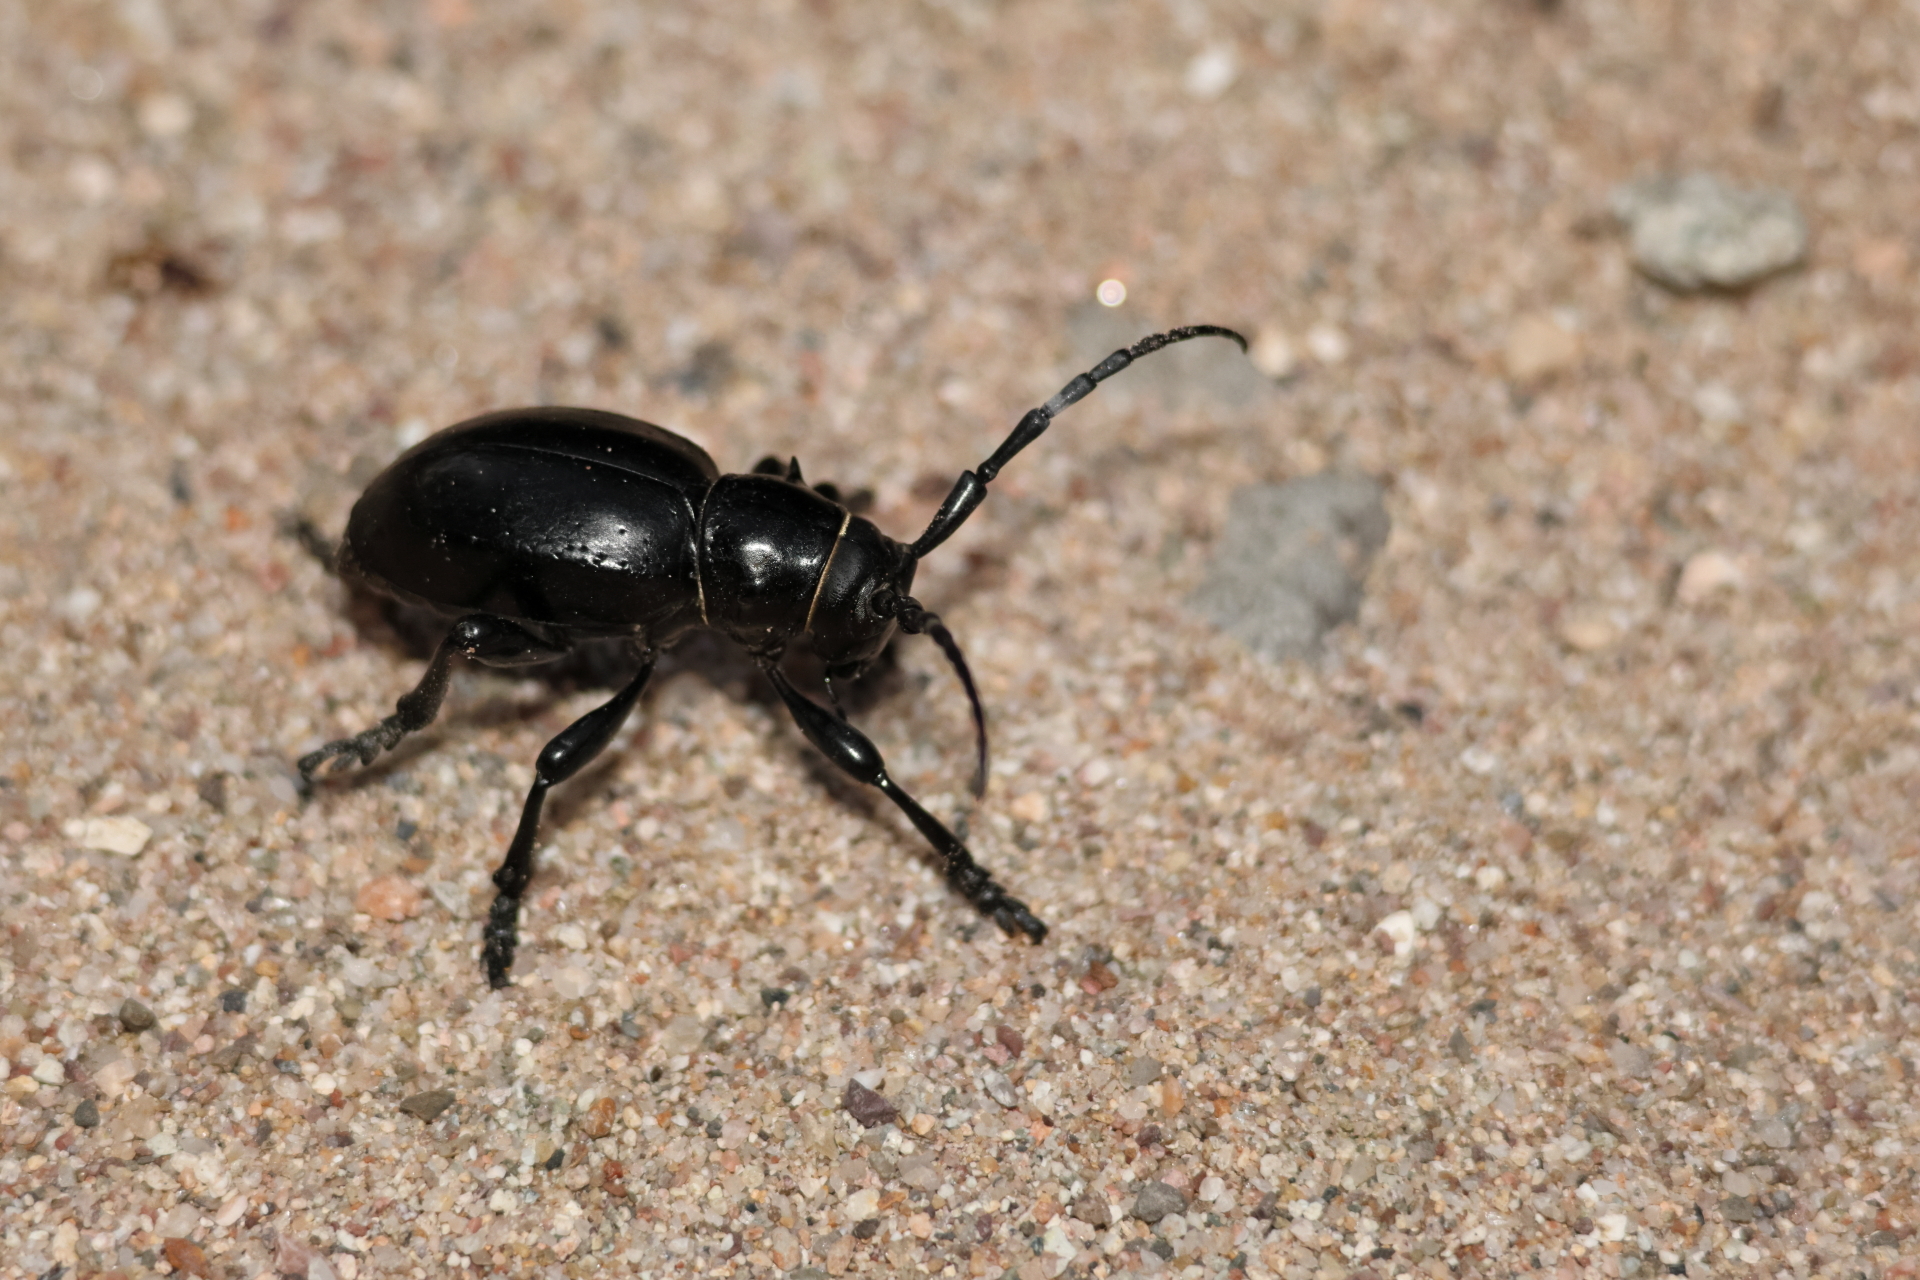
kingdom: Animalia
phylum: Arthropoda
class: Insecta
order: Coleoptera
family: Cerambycidae
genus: Moneilema
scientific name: Moneilema gigas
